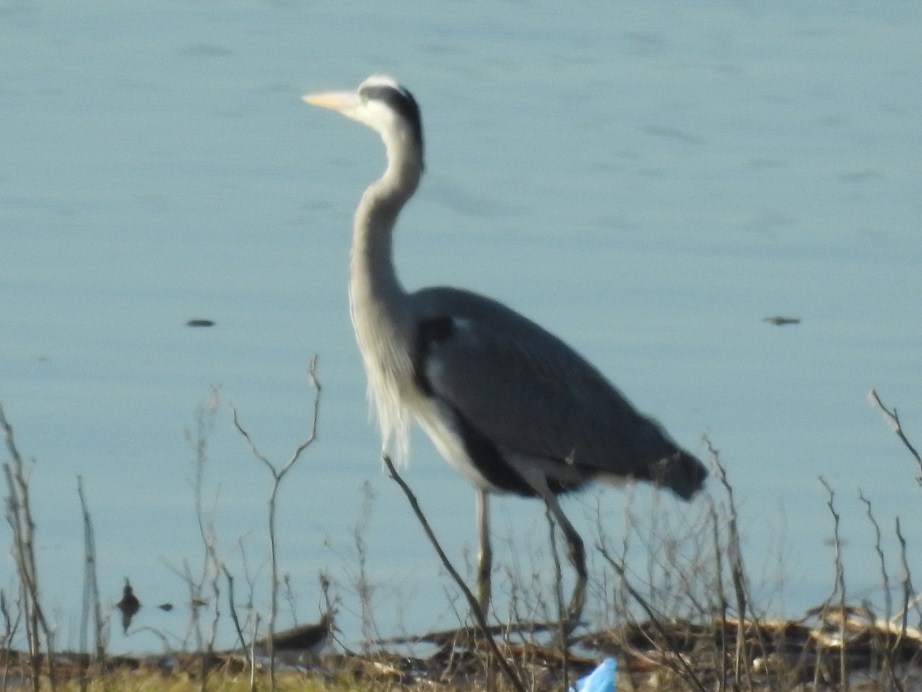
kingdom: Animalia
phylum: Chordata
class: Aves
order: Pelecaniformes
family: Ardeidae
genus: Ardea
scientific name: Ardea cinerea
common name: Grey heron
